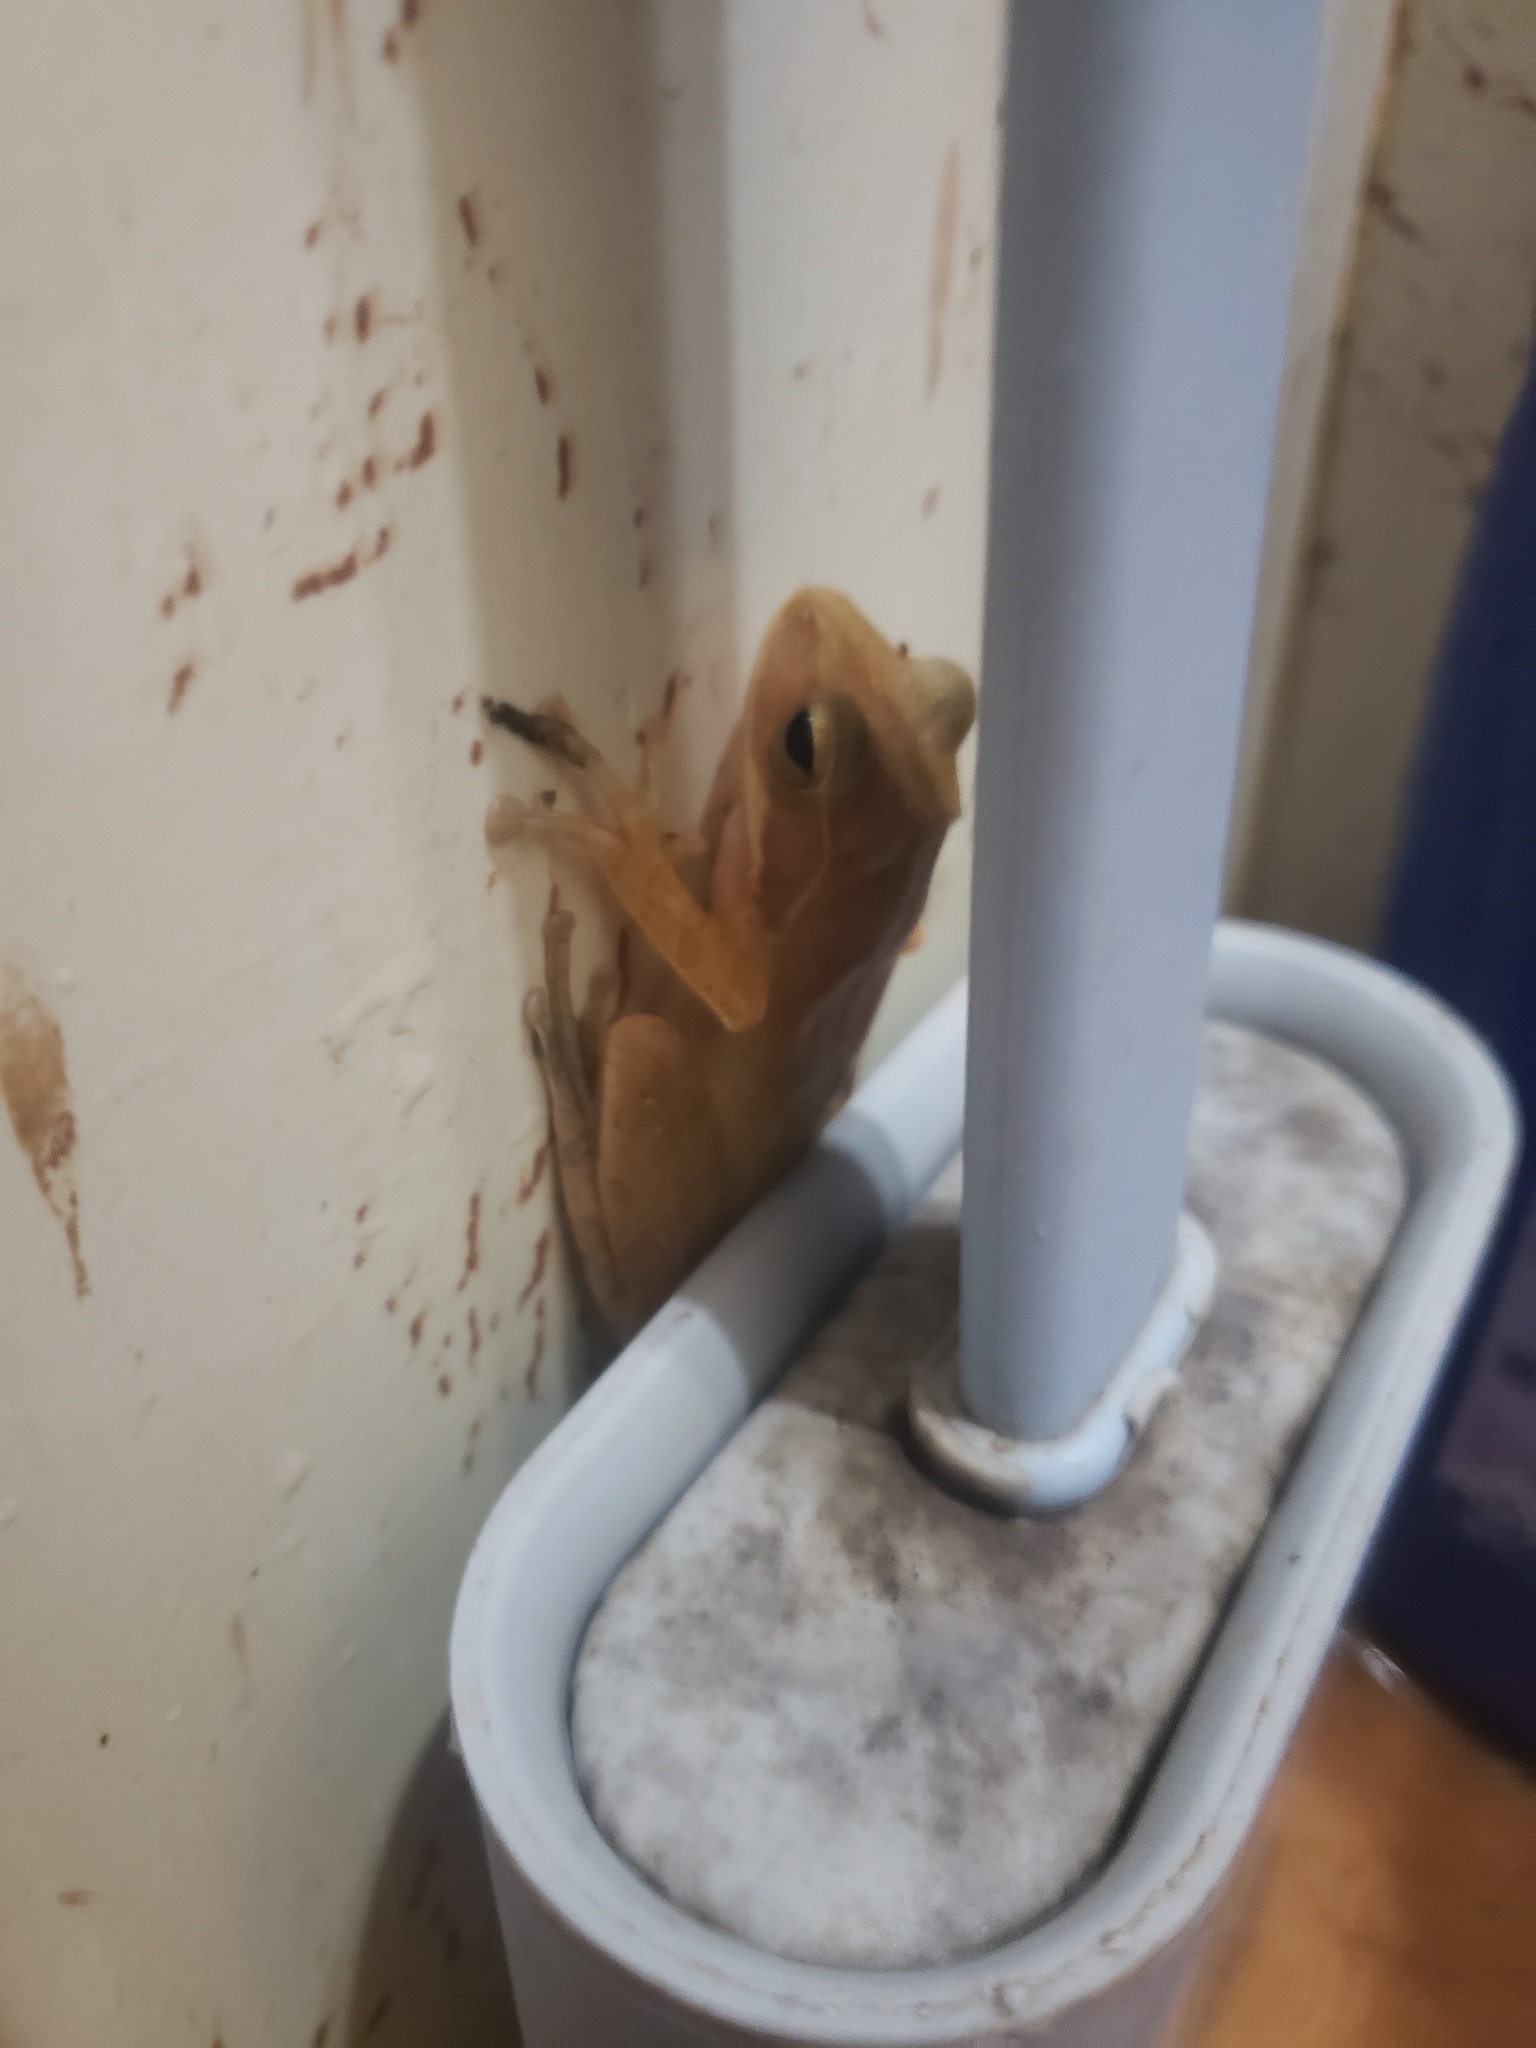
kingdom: Animalia
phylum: Chordata
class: Amphibia
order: Anura
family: Rhacophoridae
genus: Polypedates
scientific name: Polypedates maculatus
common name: Himalayan tree frog
